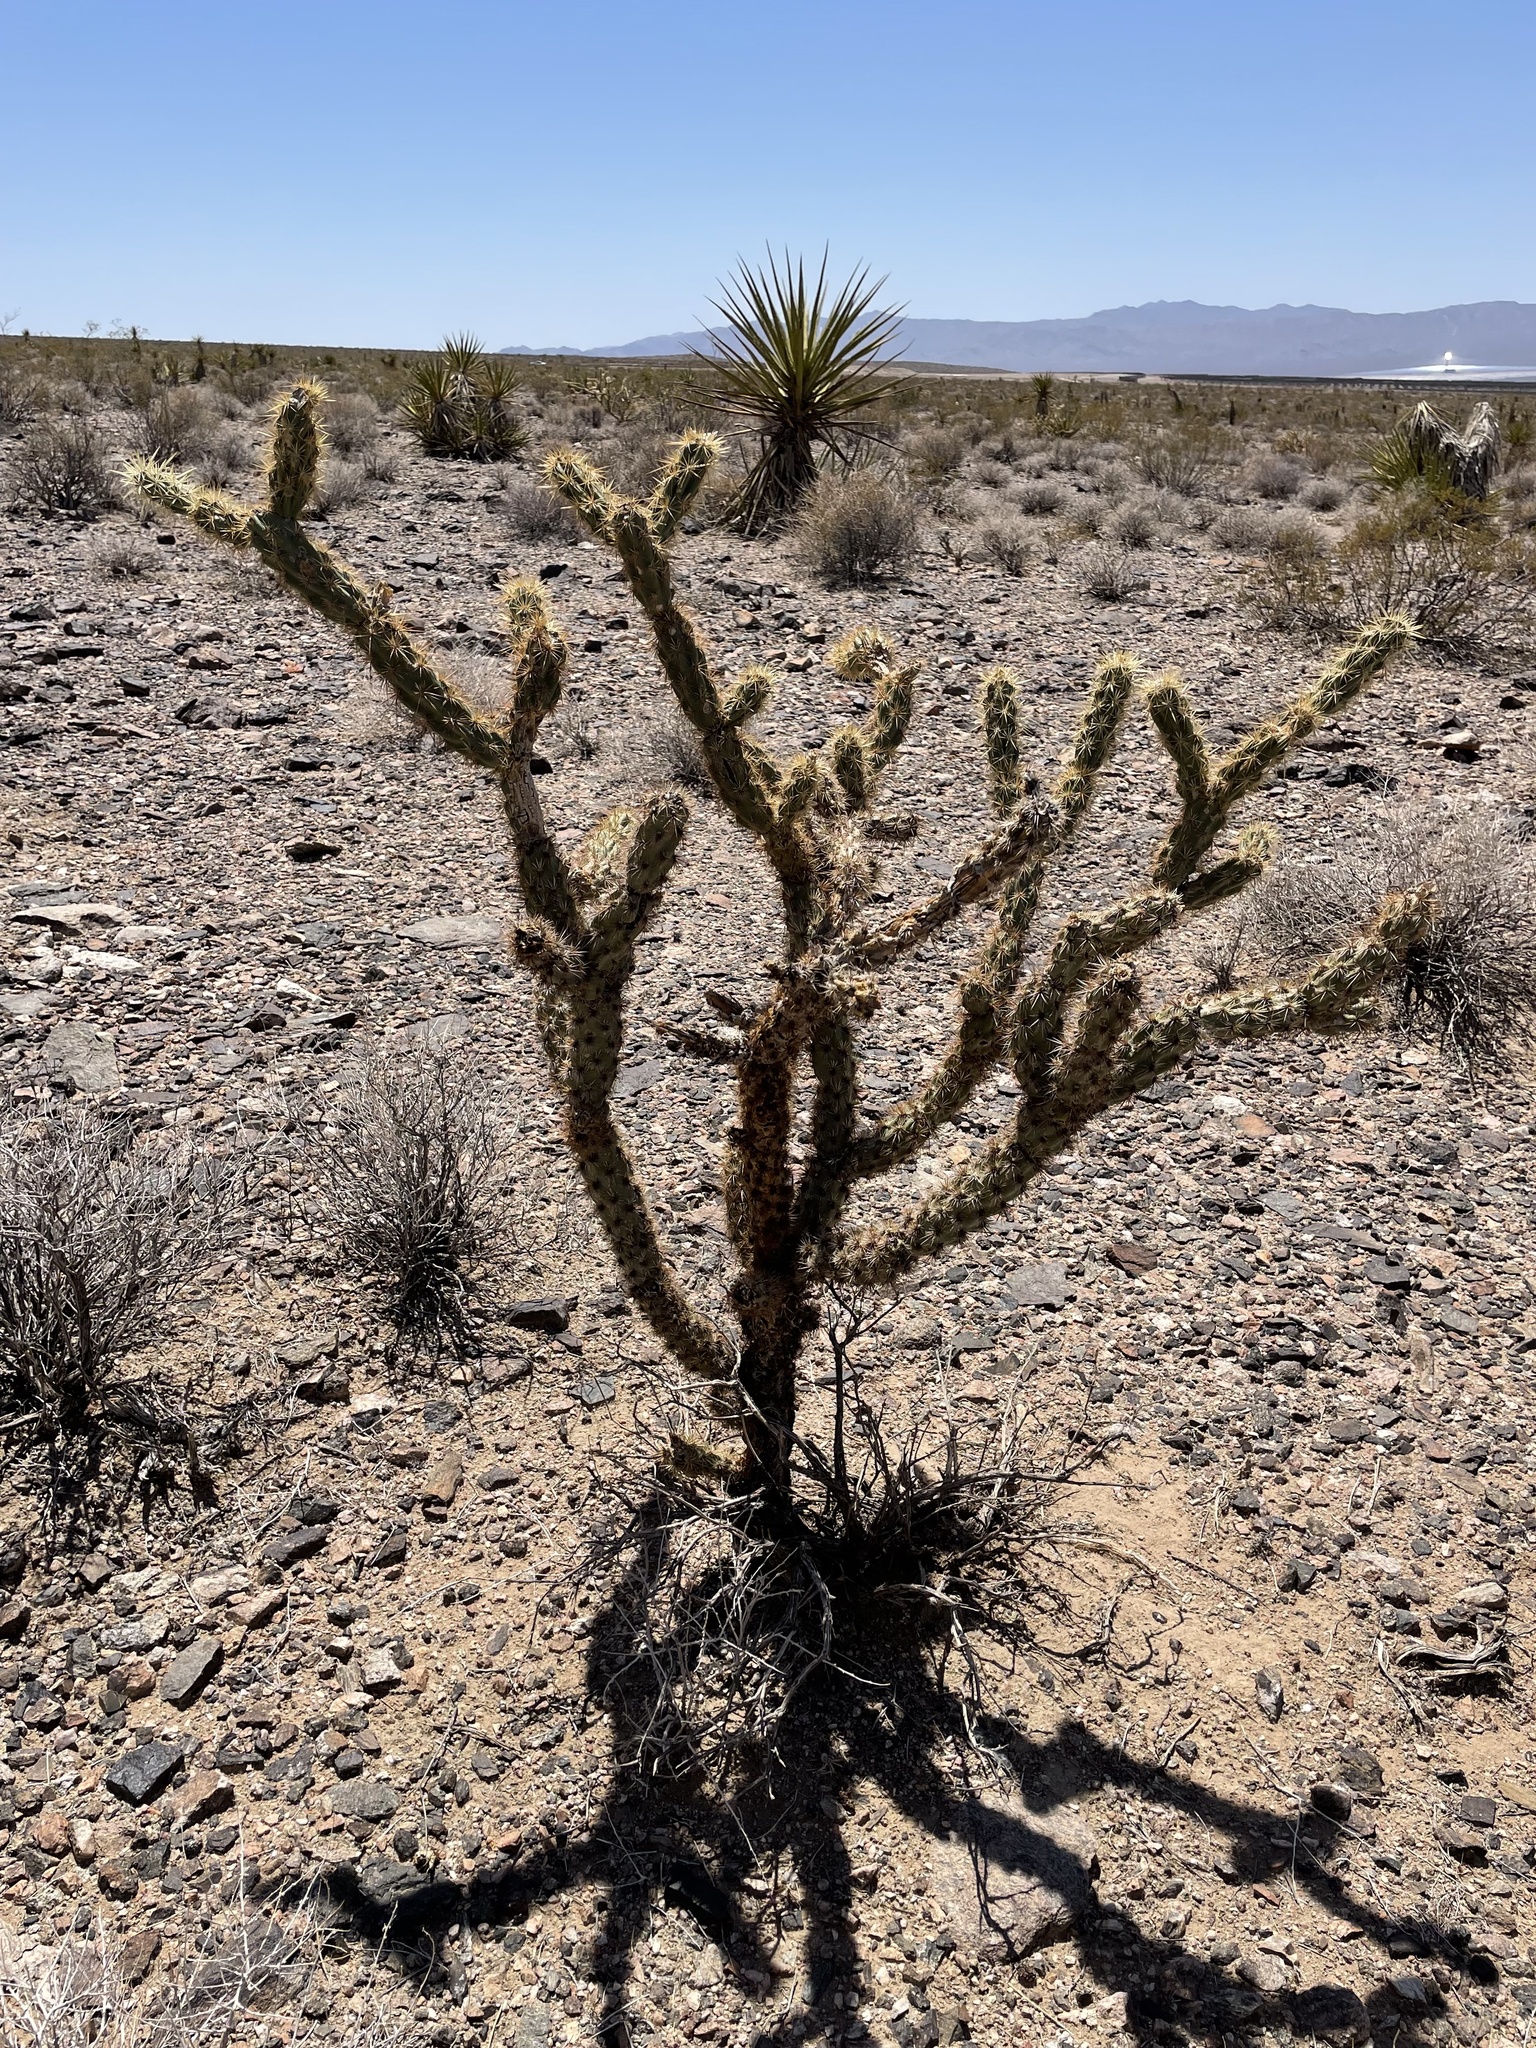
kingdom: Plantae
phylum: Tracheophyta
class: Magnoliopsida
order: Caryophyllales
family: Cactaceae
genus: Cylindropuntia
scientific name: Cylindropuntia acanthocarpa
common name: Buckhorn cholla
